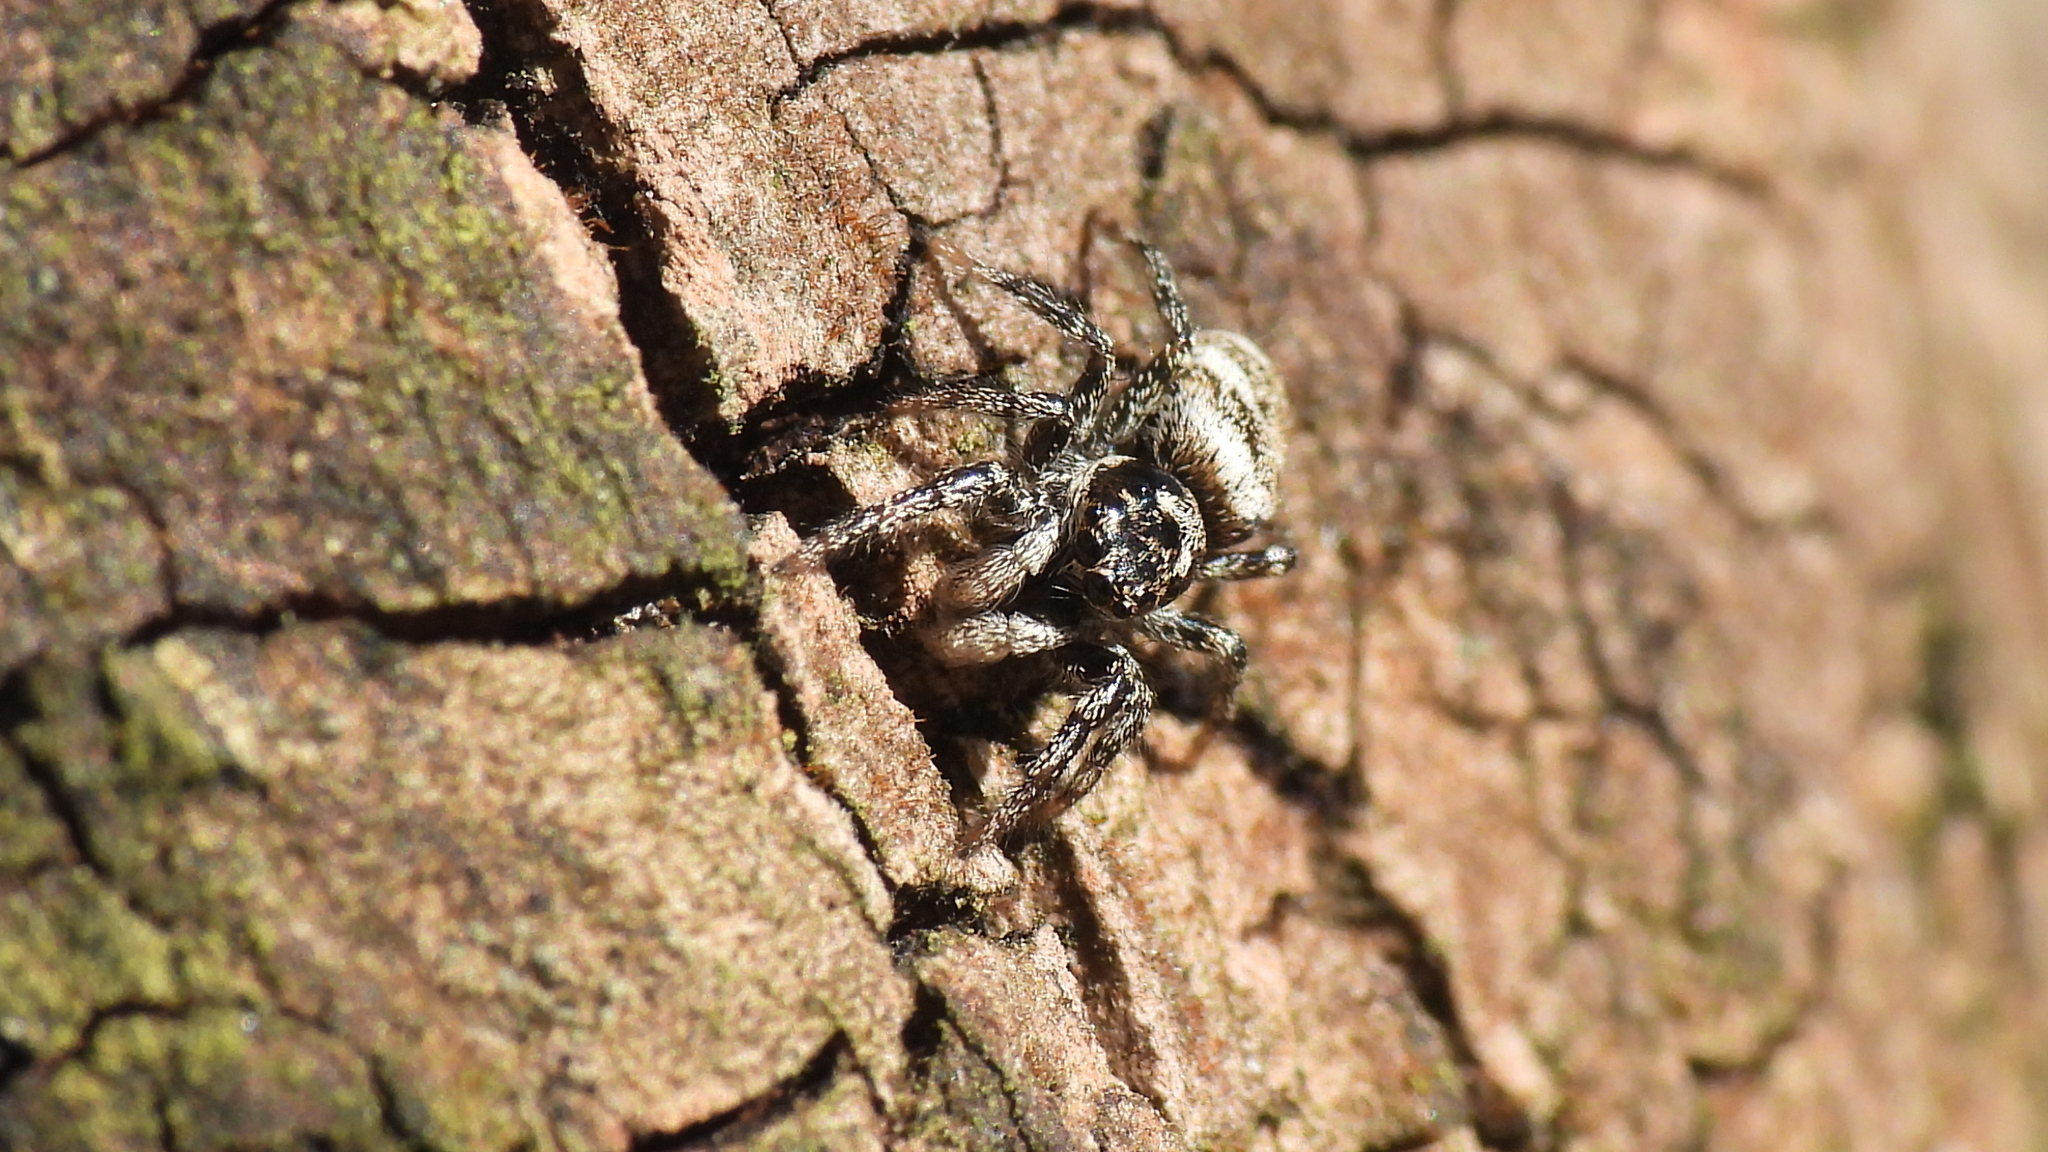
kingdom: Animalia
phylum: Arthropoda
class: Arachnida
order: Araneae
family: Salticidae
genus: Salticus
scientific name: Salticus scenicus
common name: Zebra jumper
